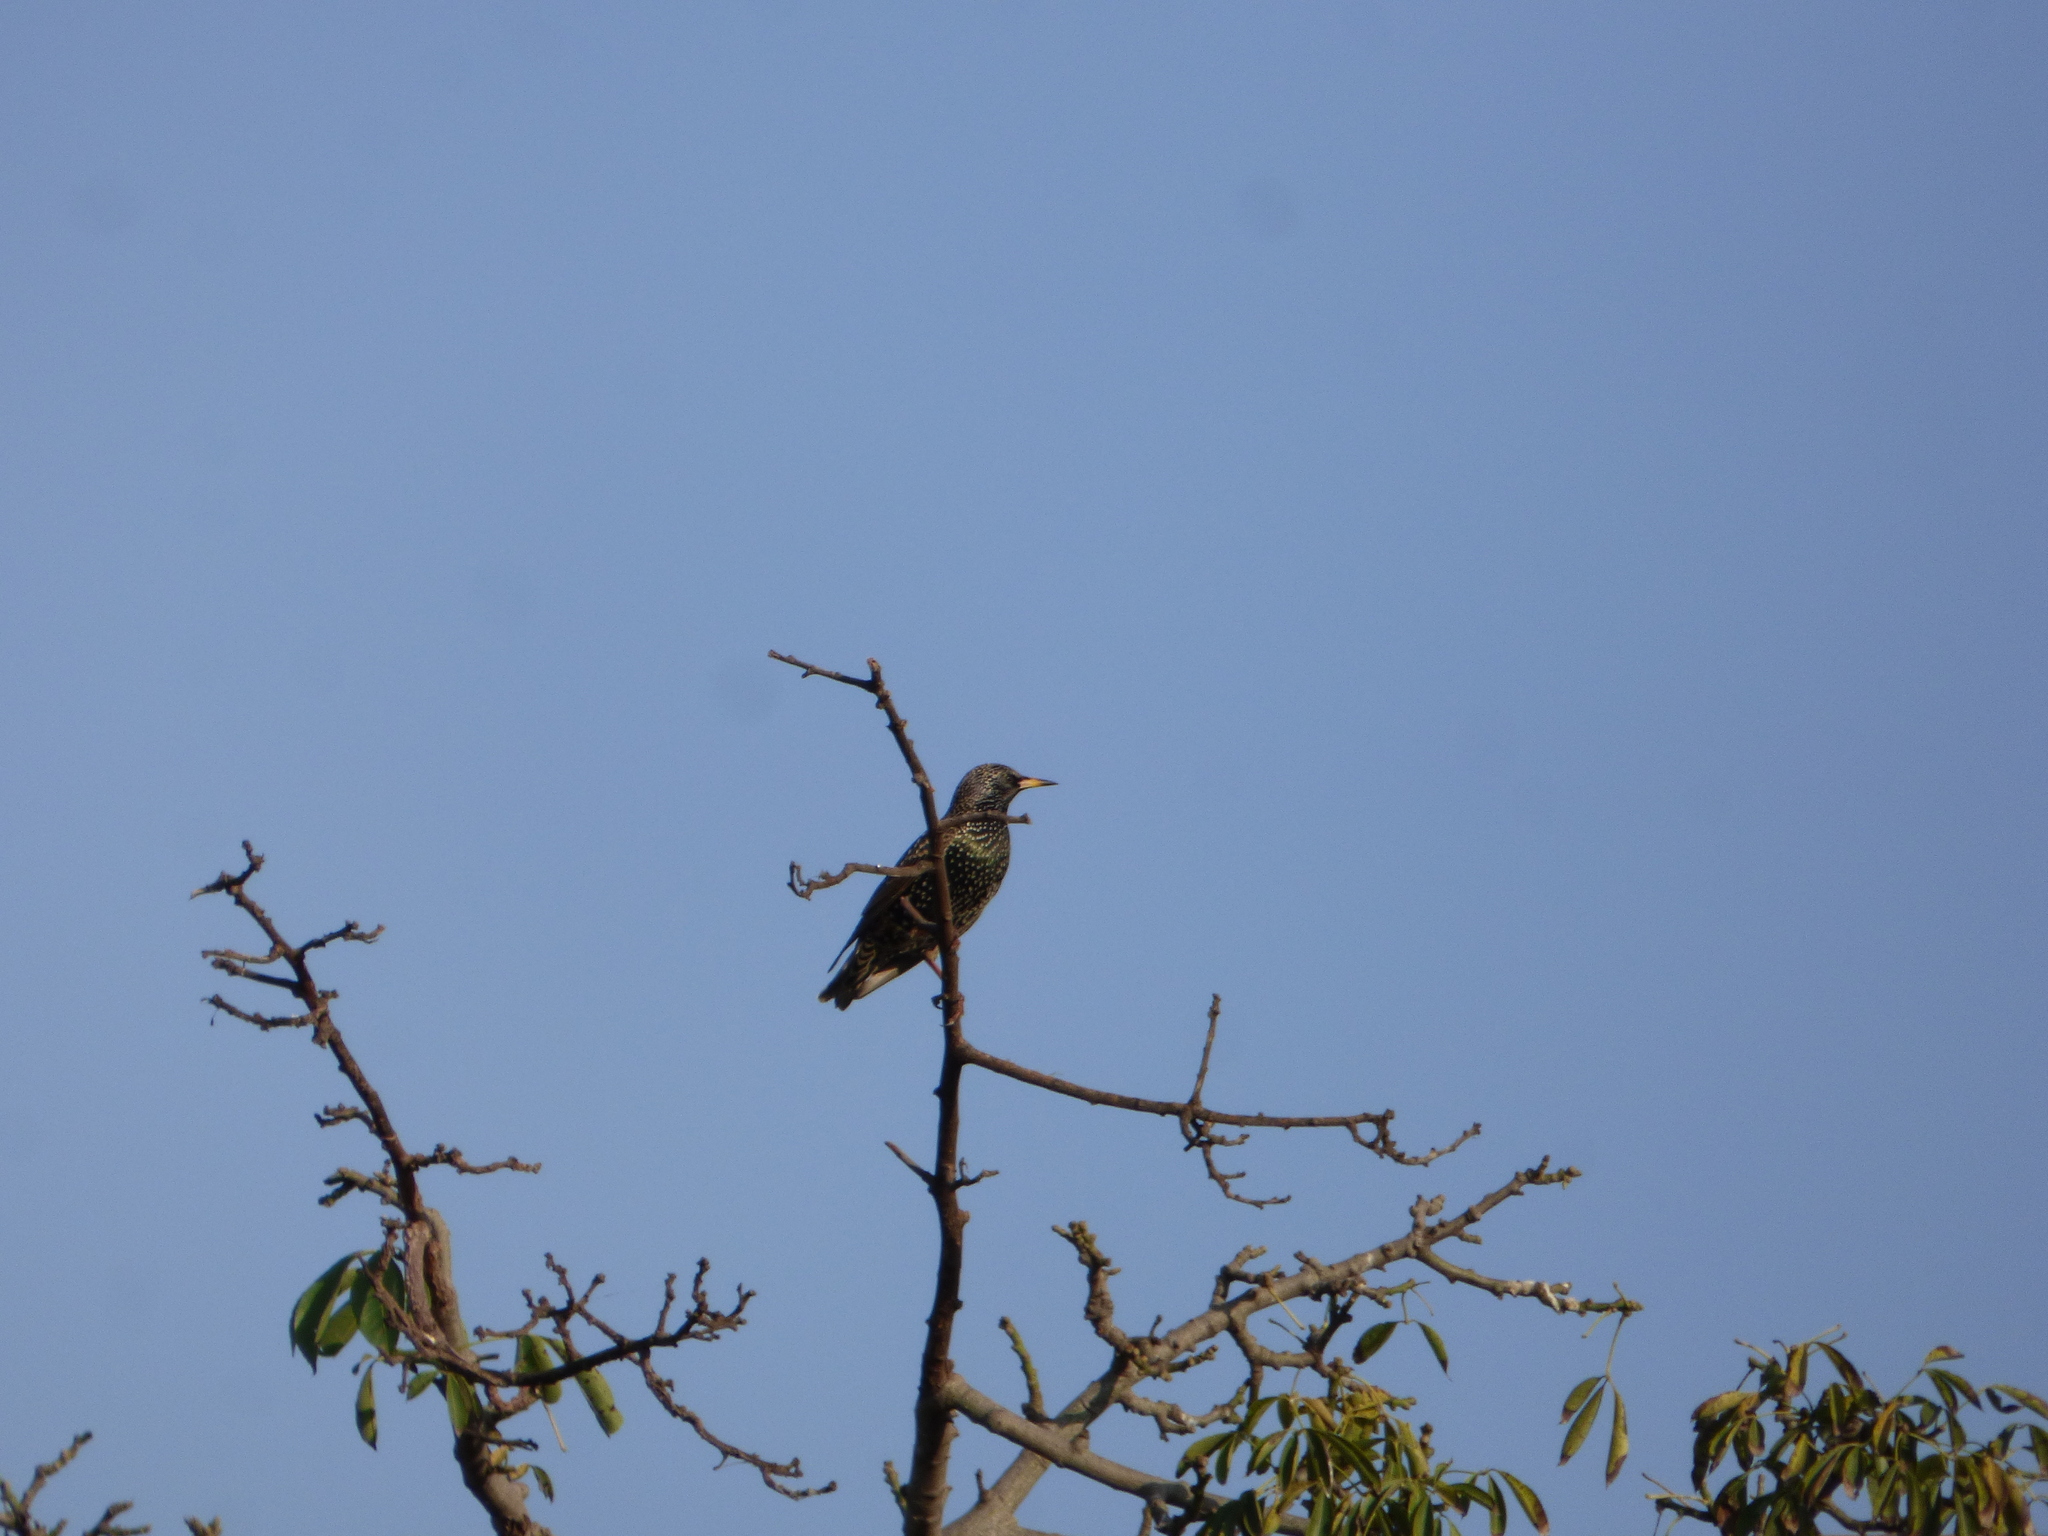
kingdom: Animalia
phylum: Chordata
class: Aves
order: Passeriformes
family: Sturnidae
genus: Sturnus
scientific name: Sturnus vulgaris
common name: Common starling
